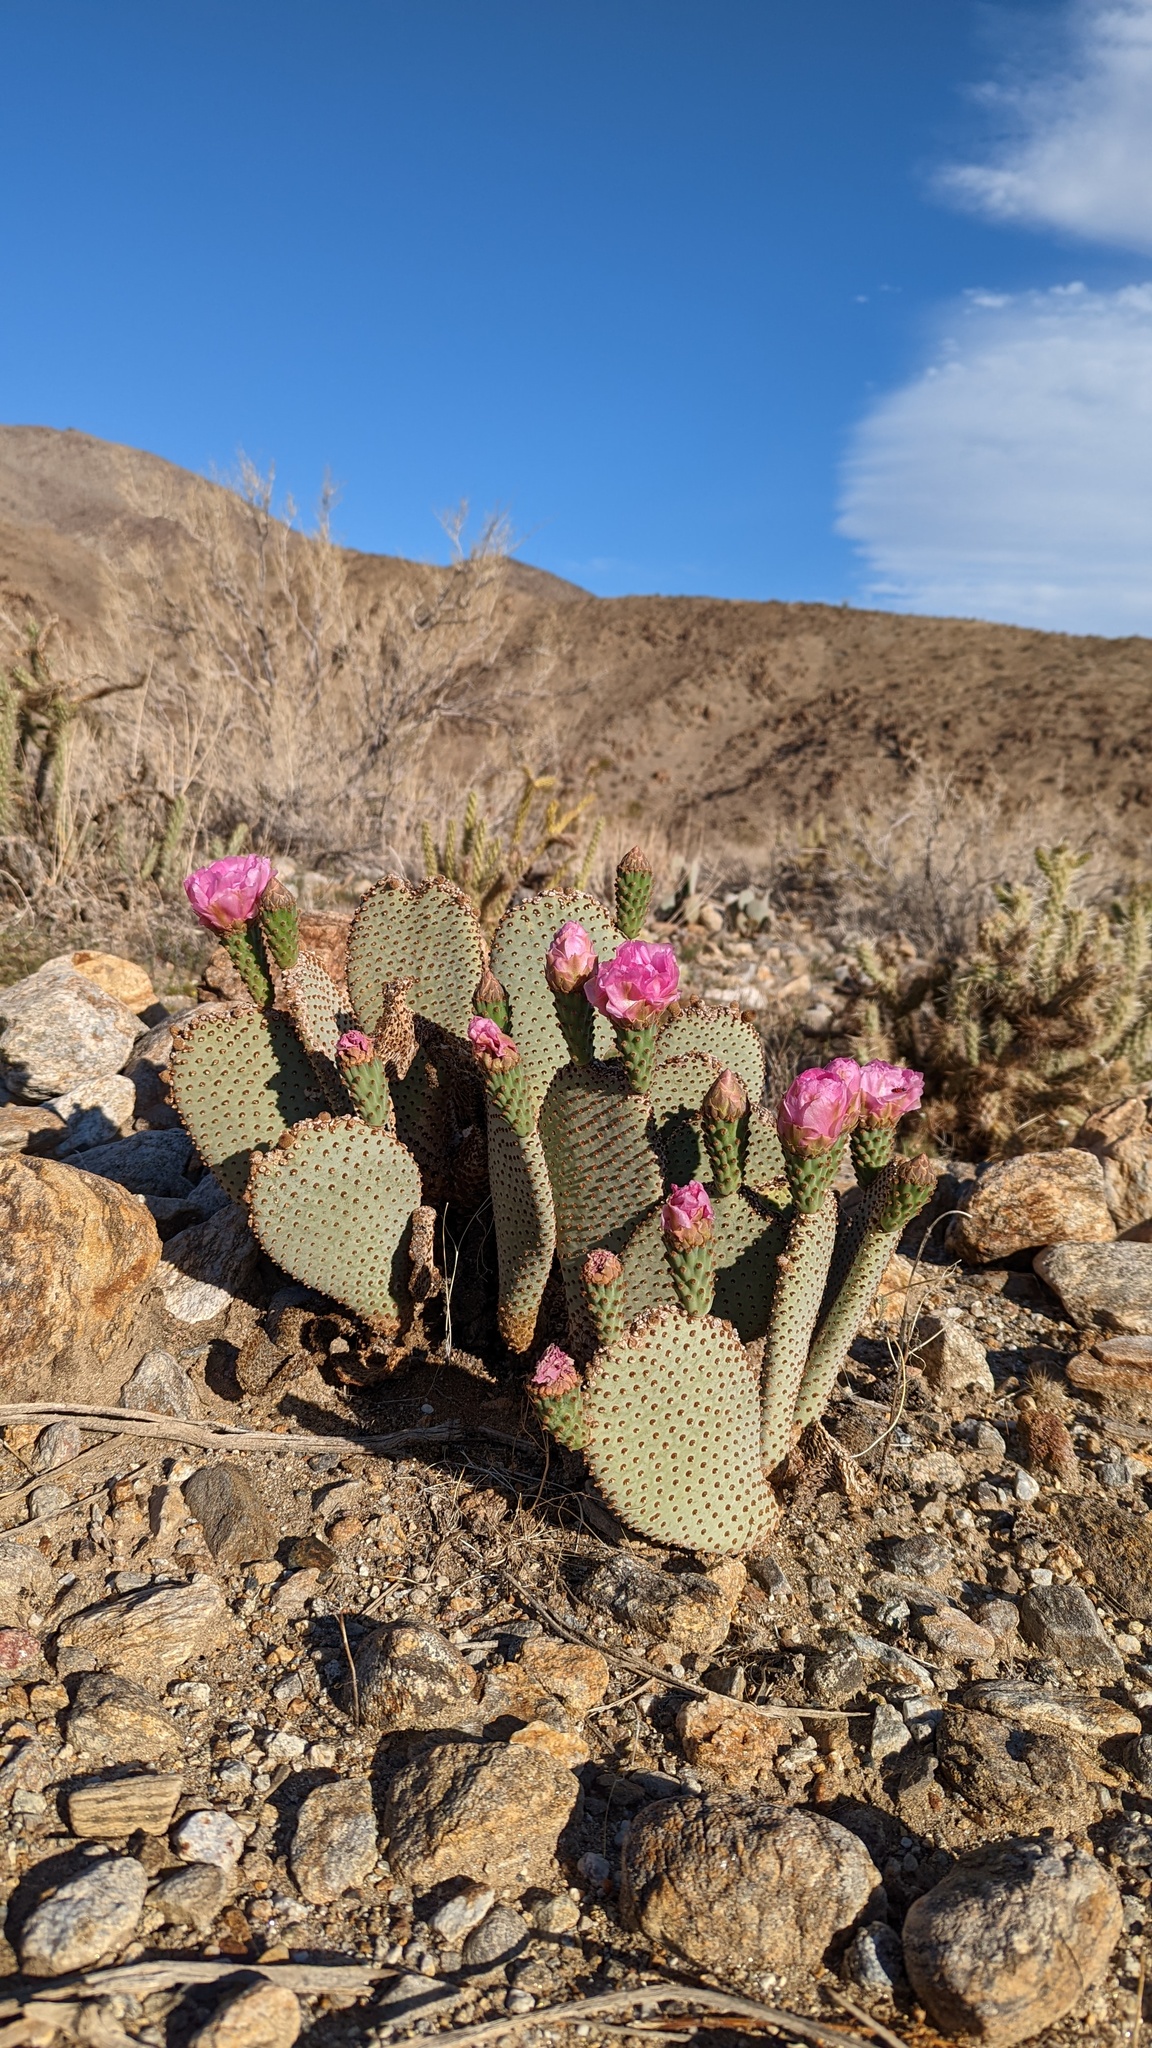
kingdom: Plantae
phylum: Tracheophyta
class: Magnoliopsida
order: Caryophyllales
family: Cactaceae
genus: Opuntia
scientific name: Opuntia basilaris
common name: Beavertail prickly-pear
